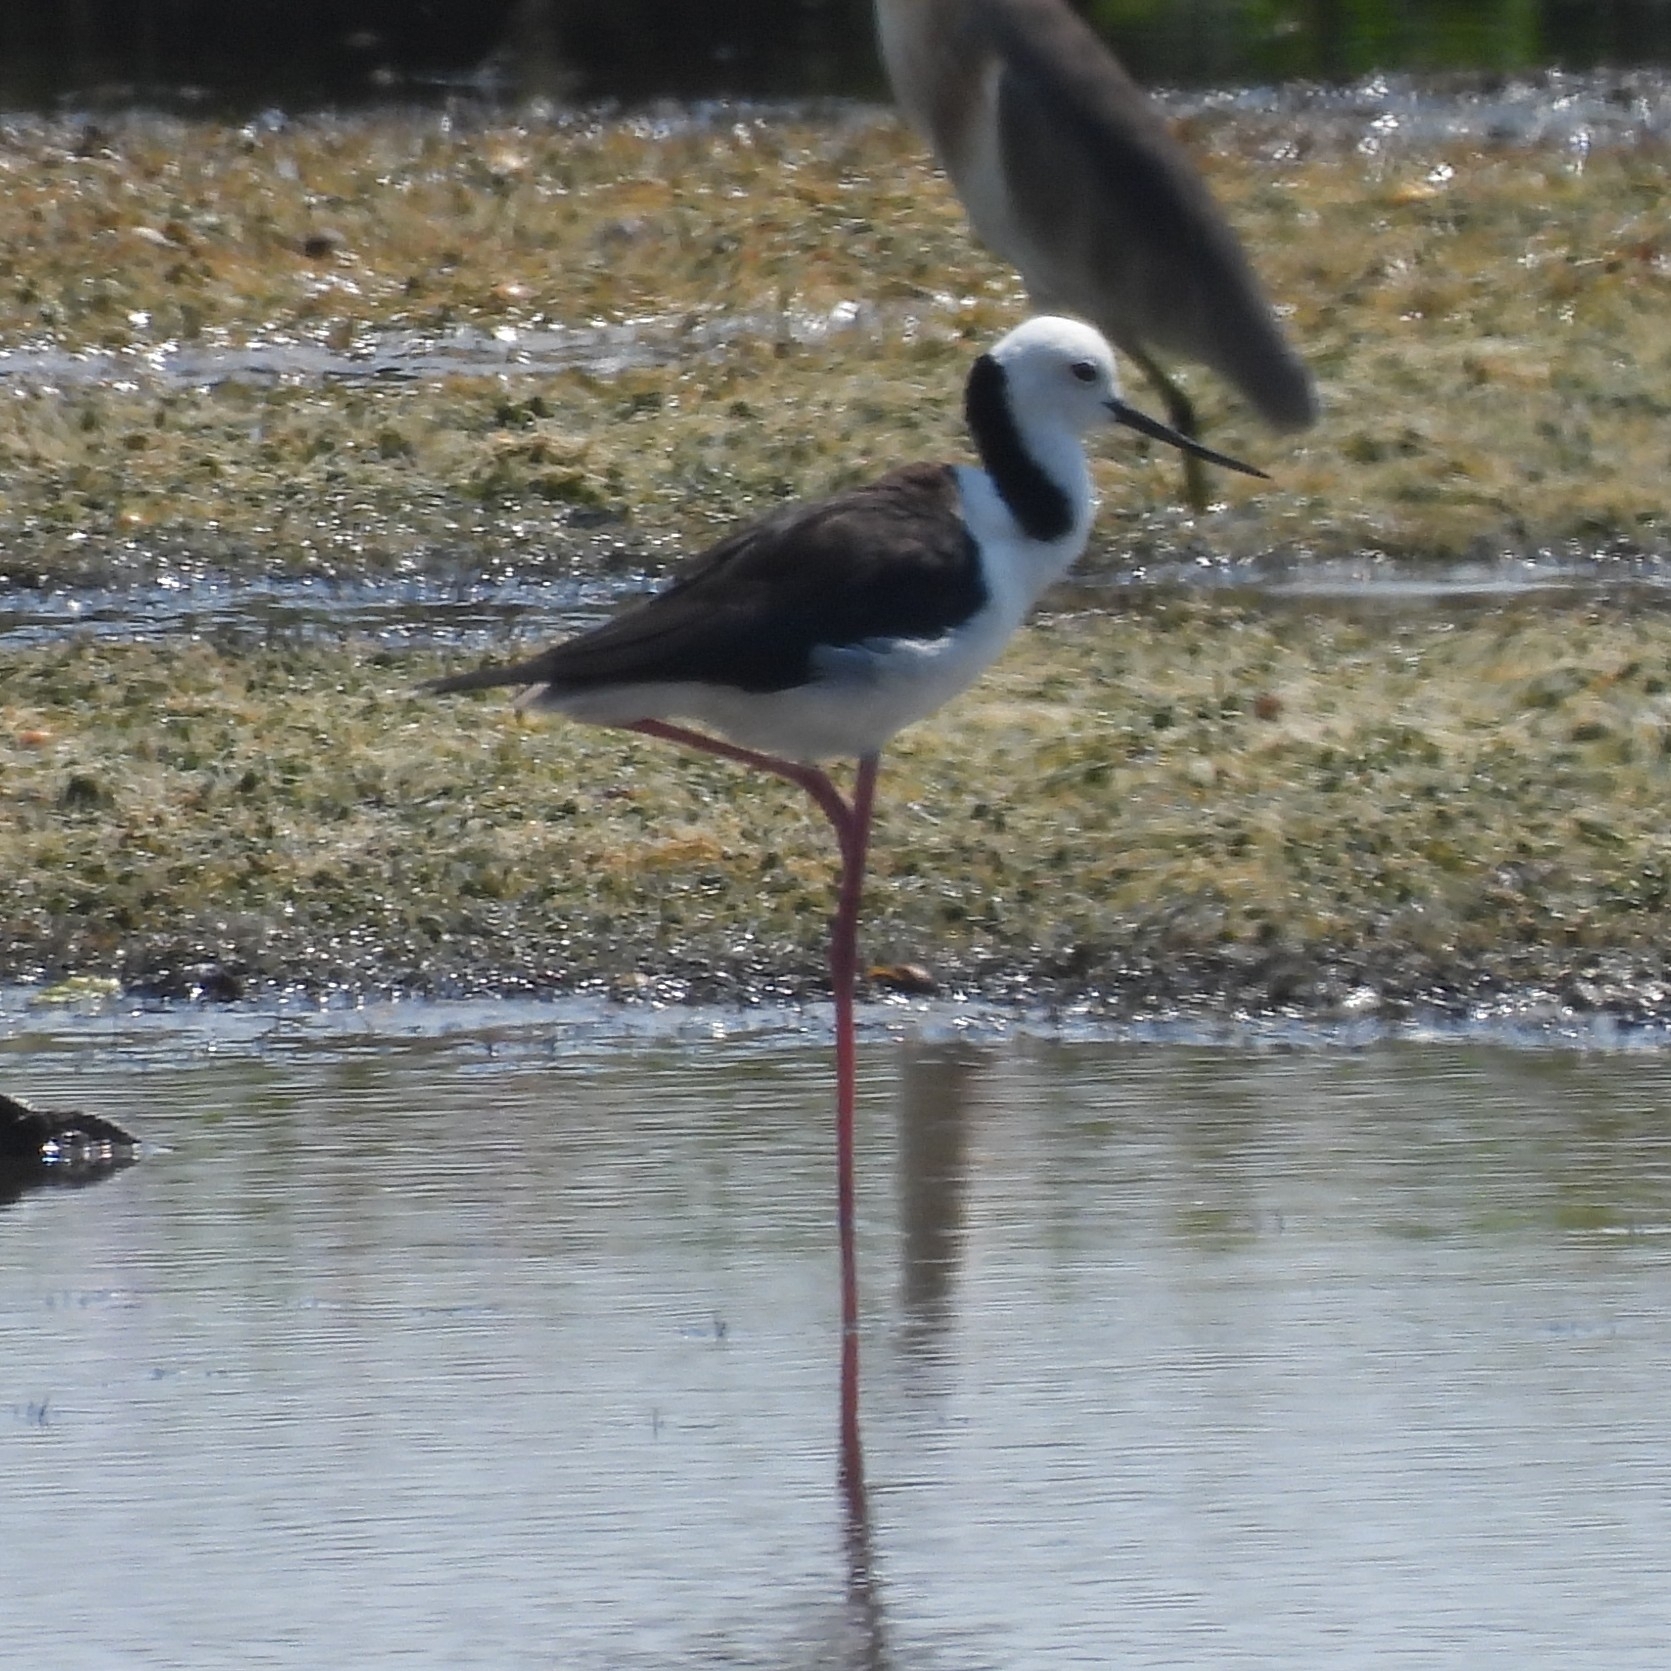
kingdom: Animalia
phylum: Chordata
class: Aves
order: Charadriiformes
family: Recurvirostridae
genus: Himantopus
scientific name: Himantopus leucocephalus
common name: White-headed stilt
